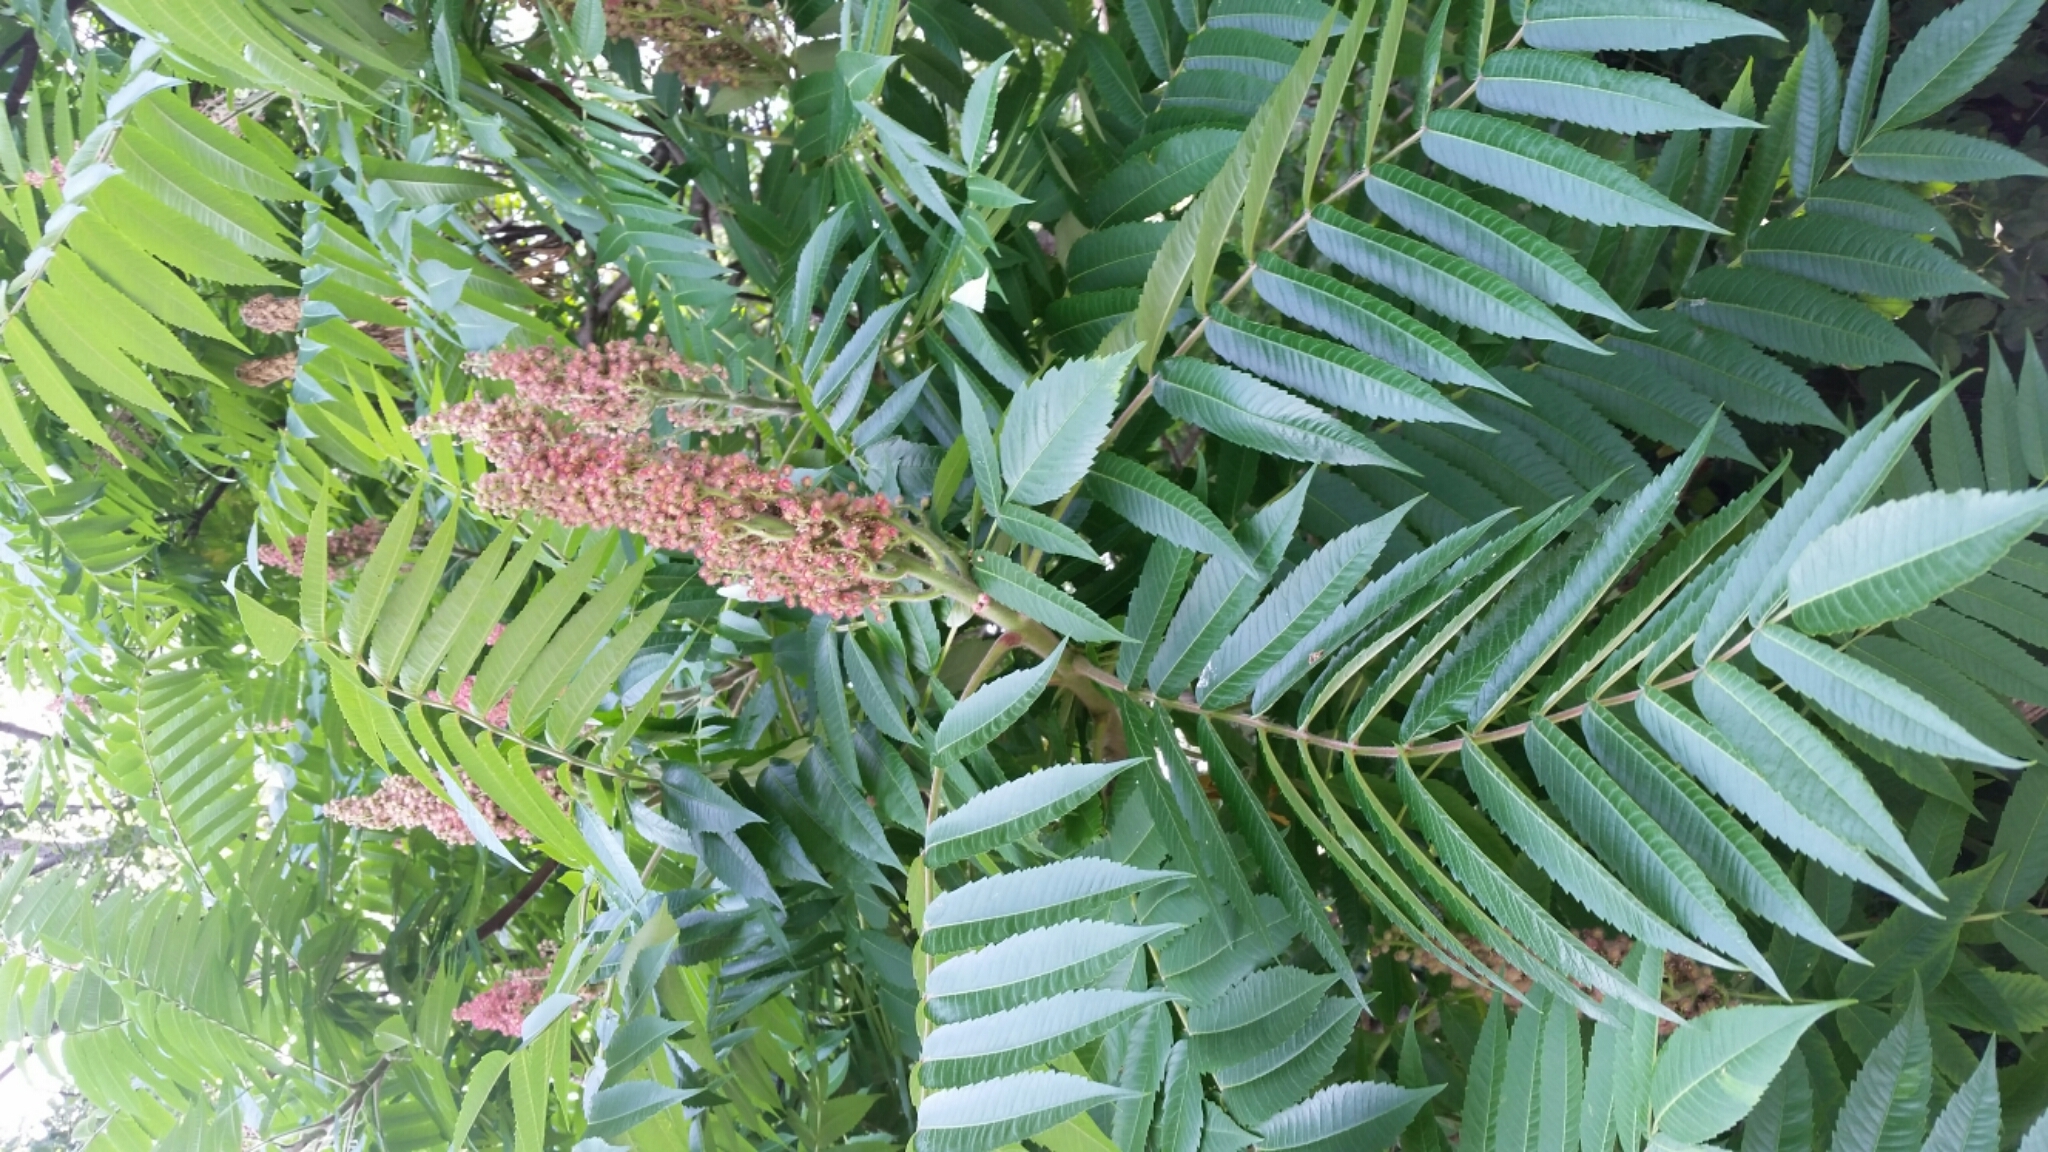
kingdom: Plantae
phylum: Tracheophyta
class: Magnoliopsida
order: Sapindales
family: Anacardiaceae
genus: Rhus
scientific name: Rhus typhina
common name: Staghorn sumac
